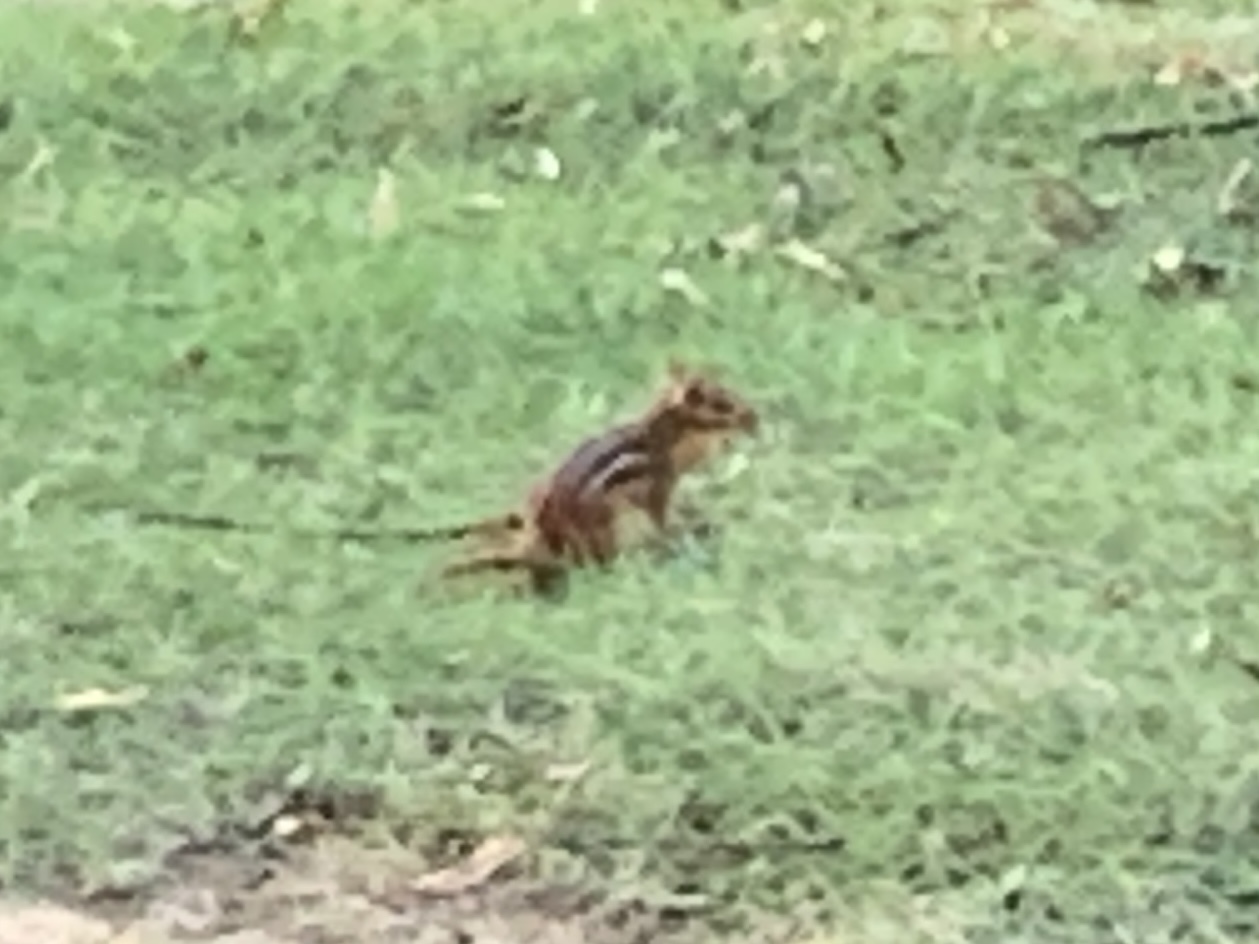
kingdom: Animalia
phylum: Chordata
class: Mammalia
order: Rodentia
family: Sciuridae
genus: Tamias
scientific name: Tamias striatus
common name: Eastern chipmunk
